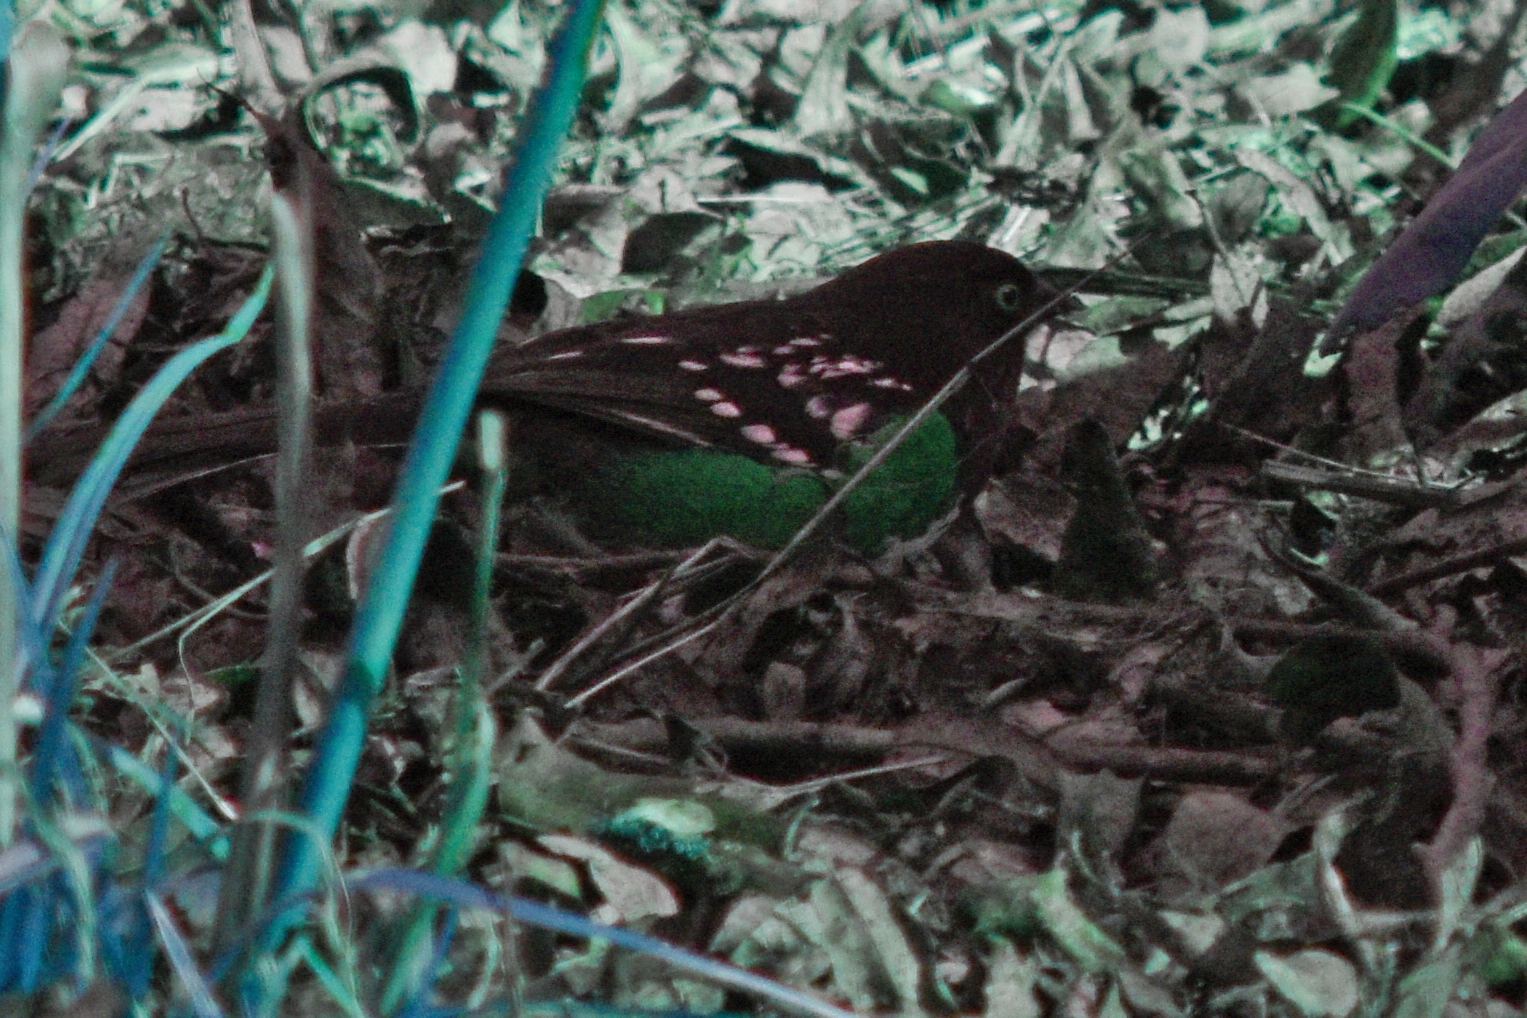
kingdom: Animalia
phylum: Chordata
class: Aves
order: Passeriformes
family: Passerellidae
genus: Pipilo
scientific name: Pipilo maculatus
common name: Spotted towhee
